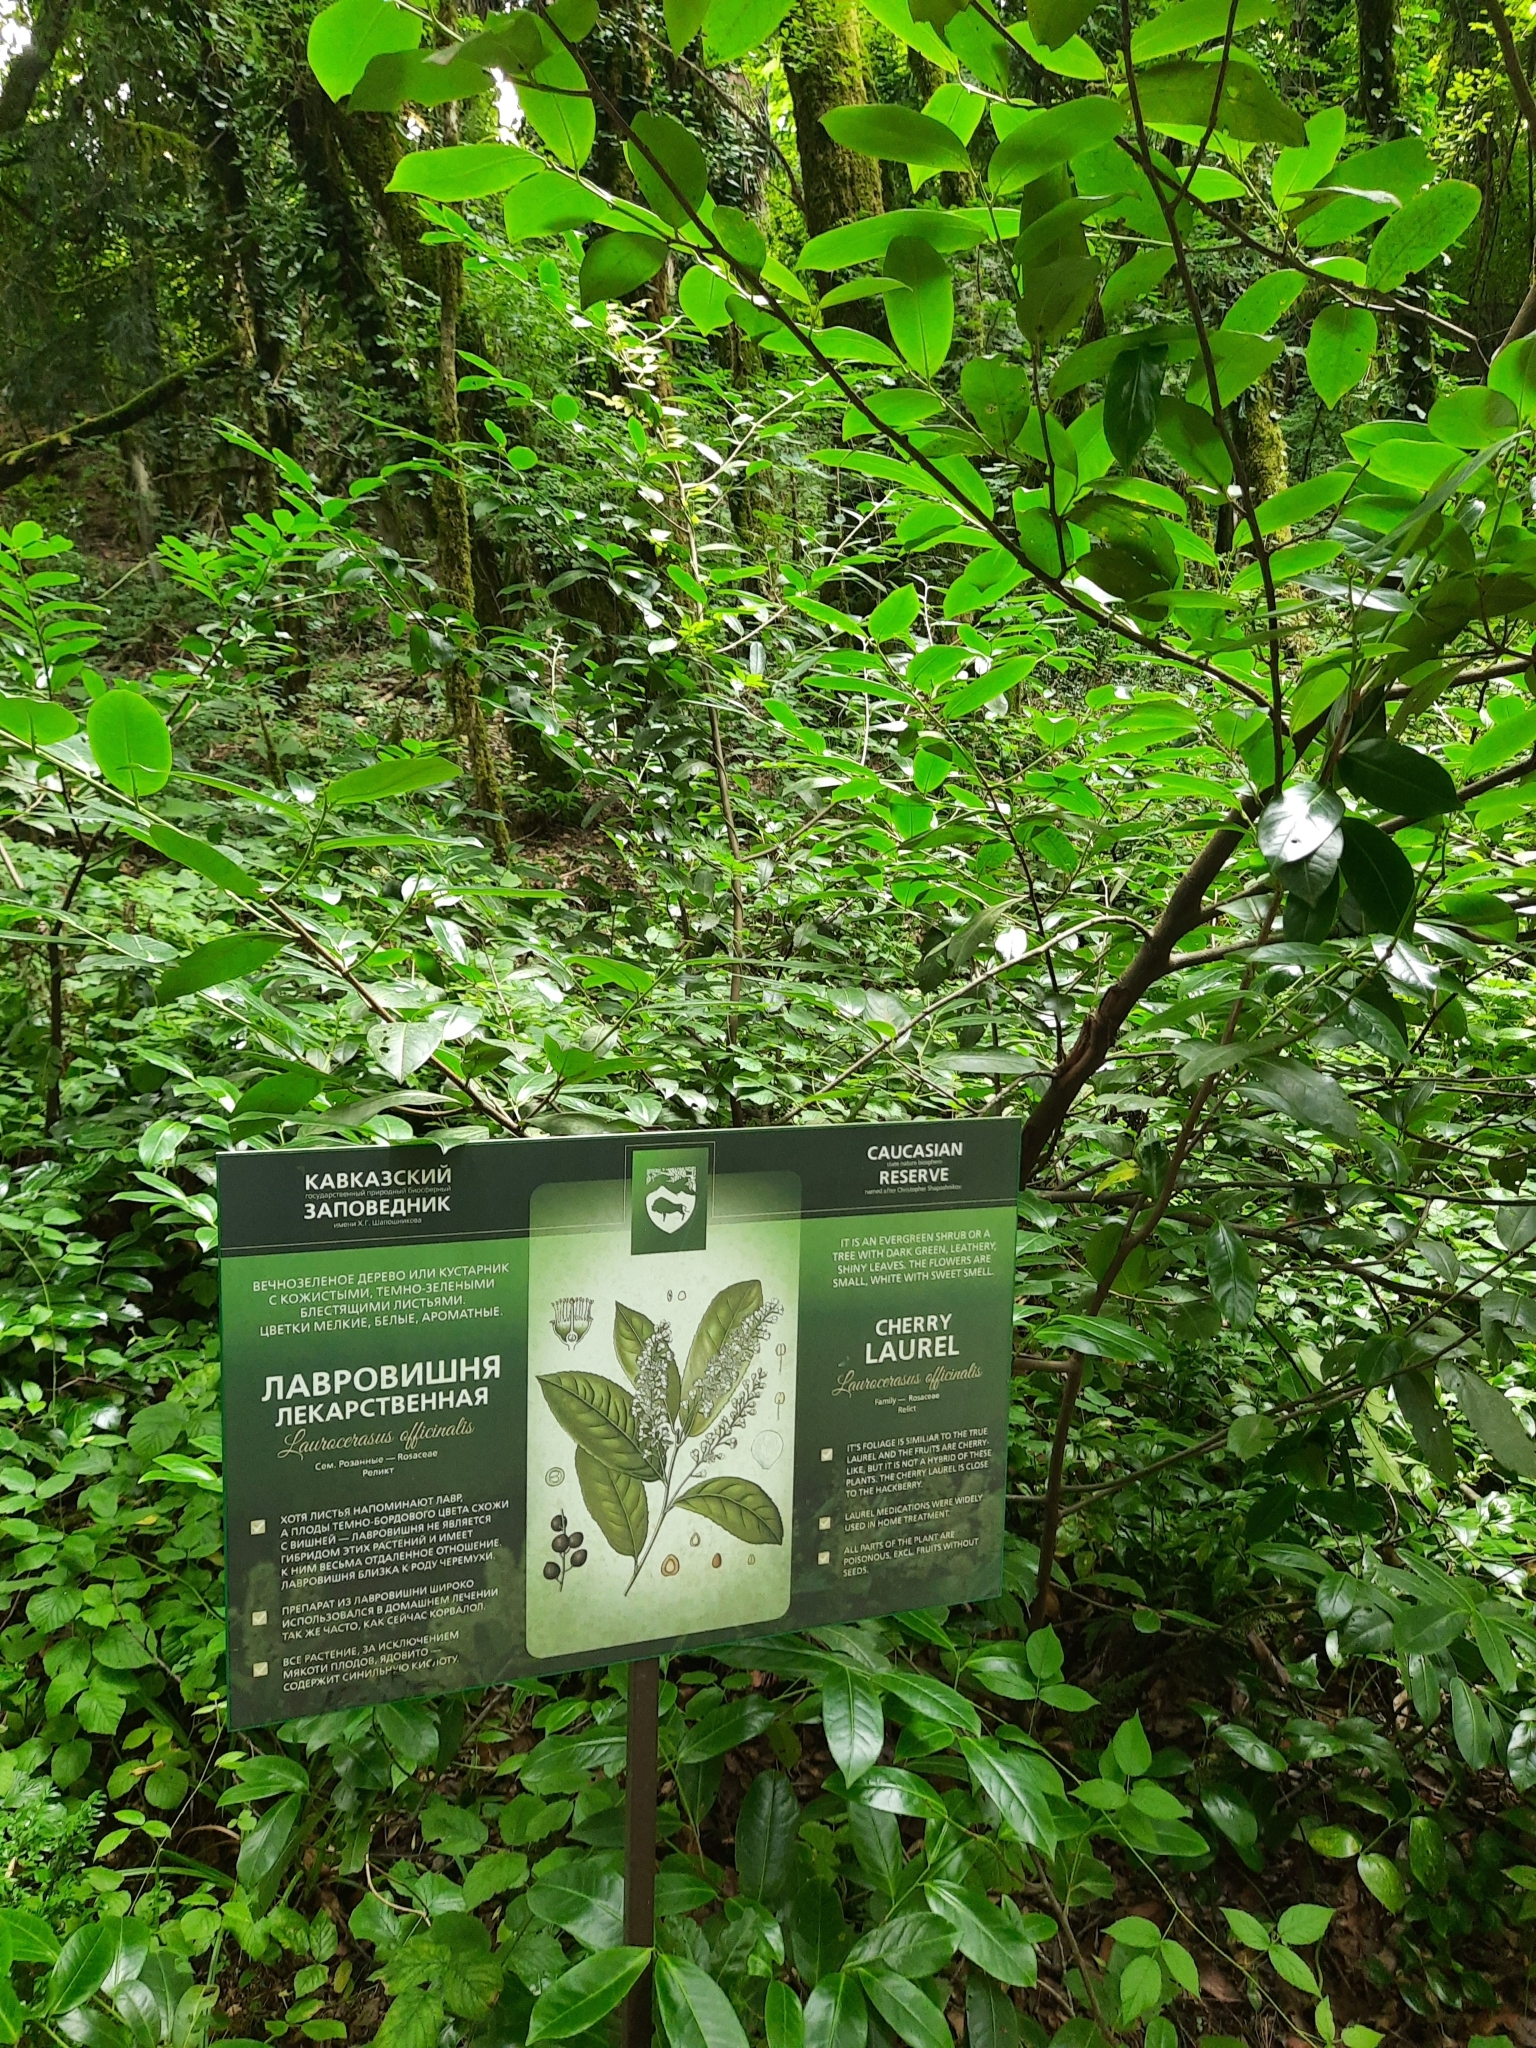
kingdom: Plantae
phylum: Tracheophyta
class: Magnoliopsida
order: Rosales
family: Rosaceae
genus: Prunus
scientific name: Prunus laurocerasus
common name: Cherry laurel
